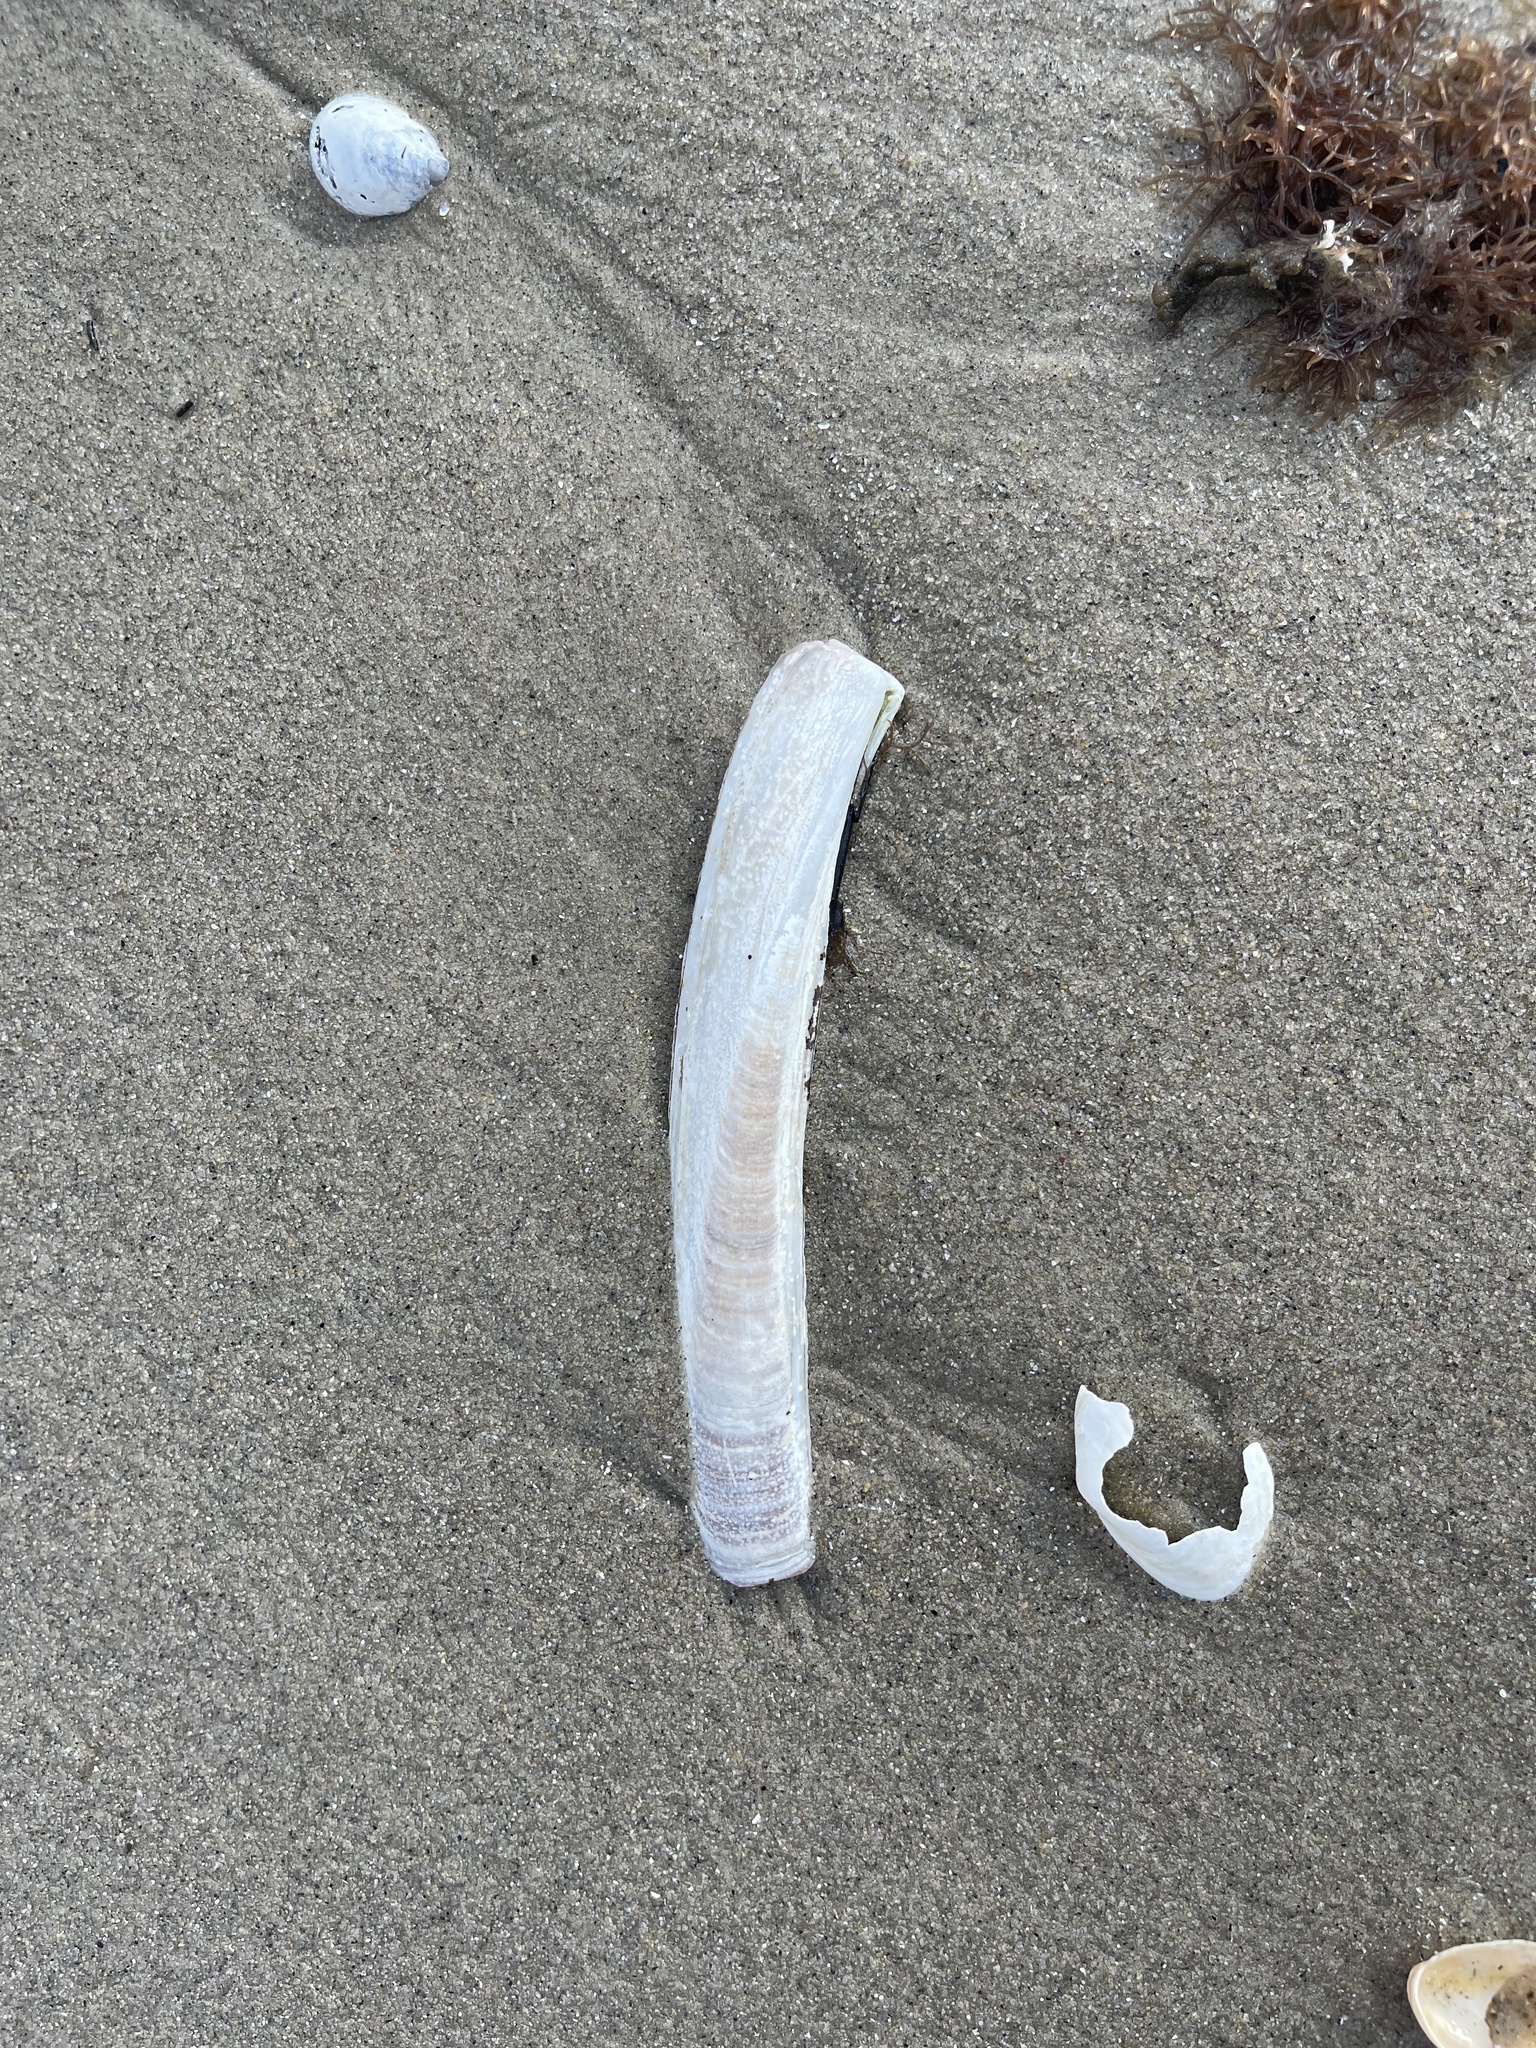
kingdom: Animalia
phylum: Mollusca
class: Bivalvia
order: Adapedonta
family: Pharidae
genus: Ensis
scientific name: Ensis leei
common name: American jack knife clam
